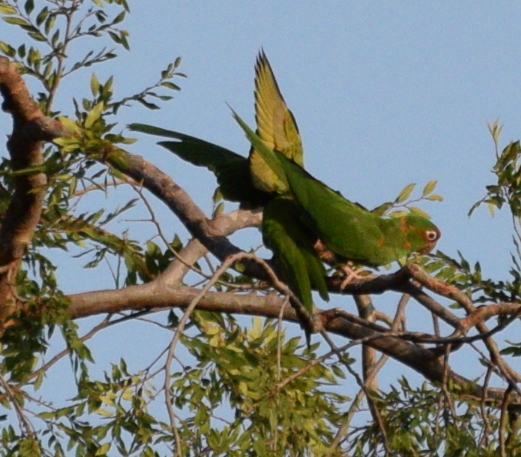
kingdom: Animalia
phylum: Chordata
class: Aves
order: Psittaciformes
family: Psittacidae
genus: Aratinga
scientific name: Aratinga mitrata
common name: Mitred parakeet
